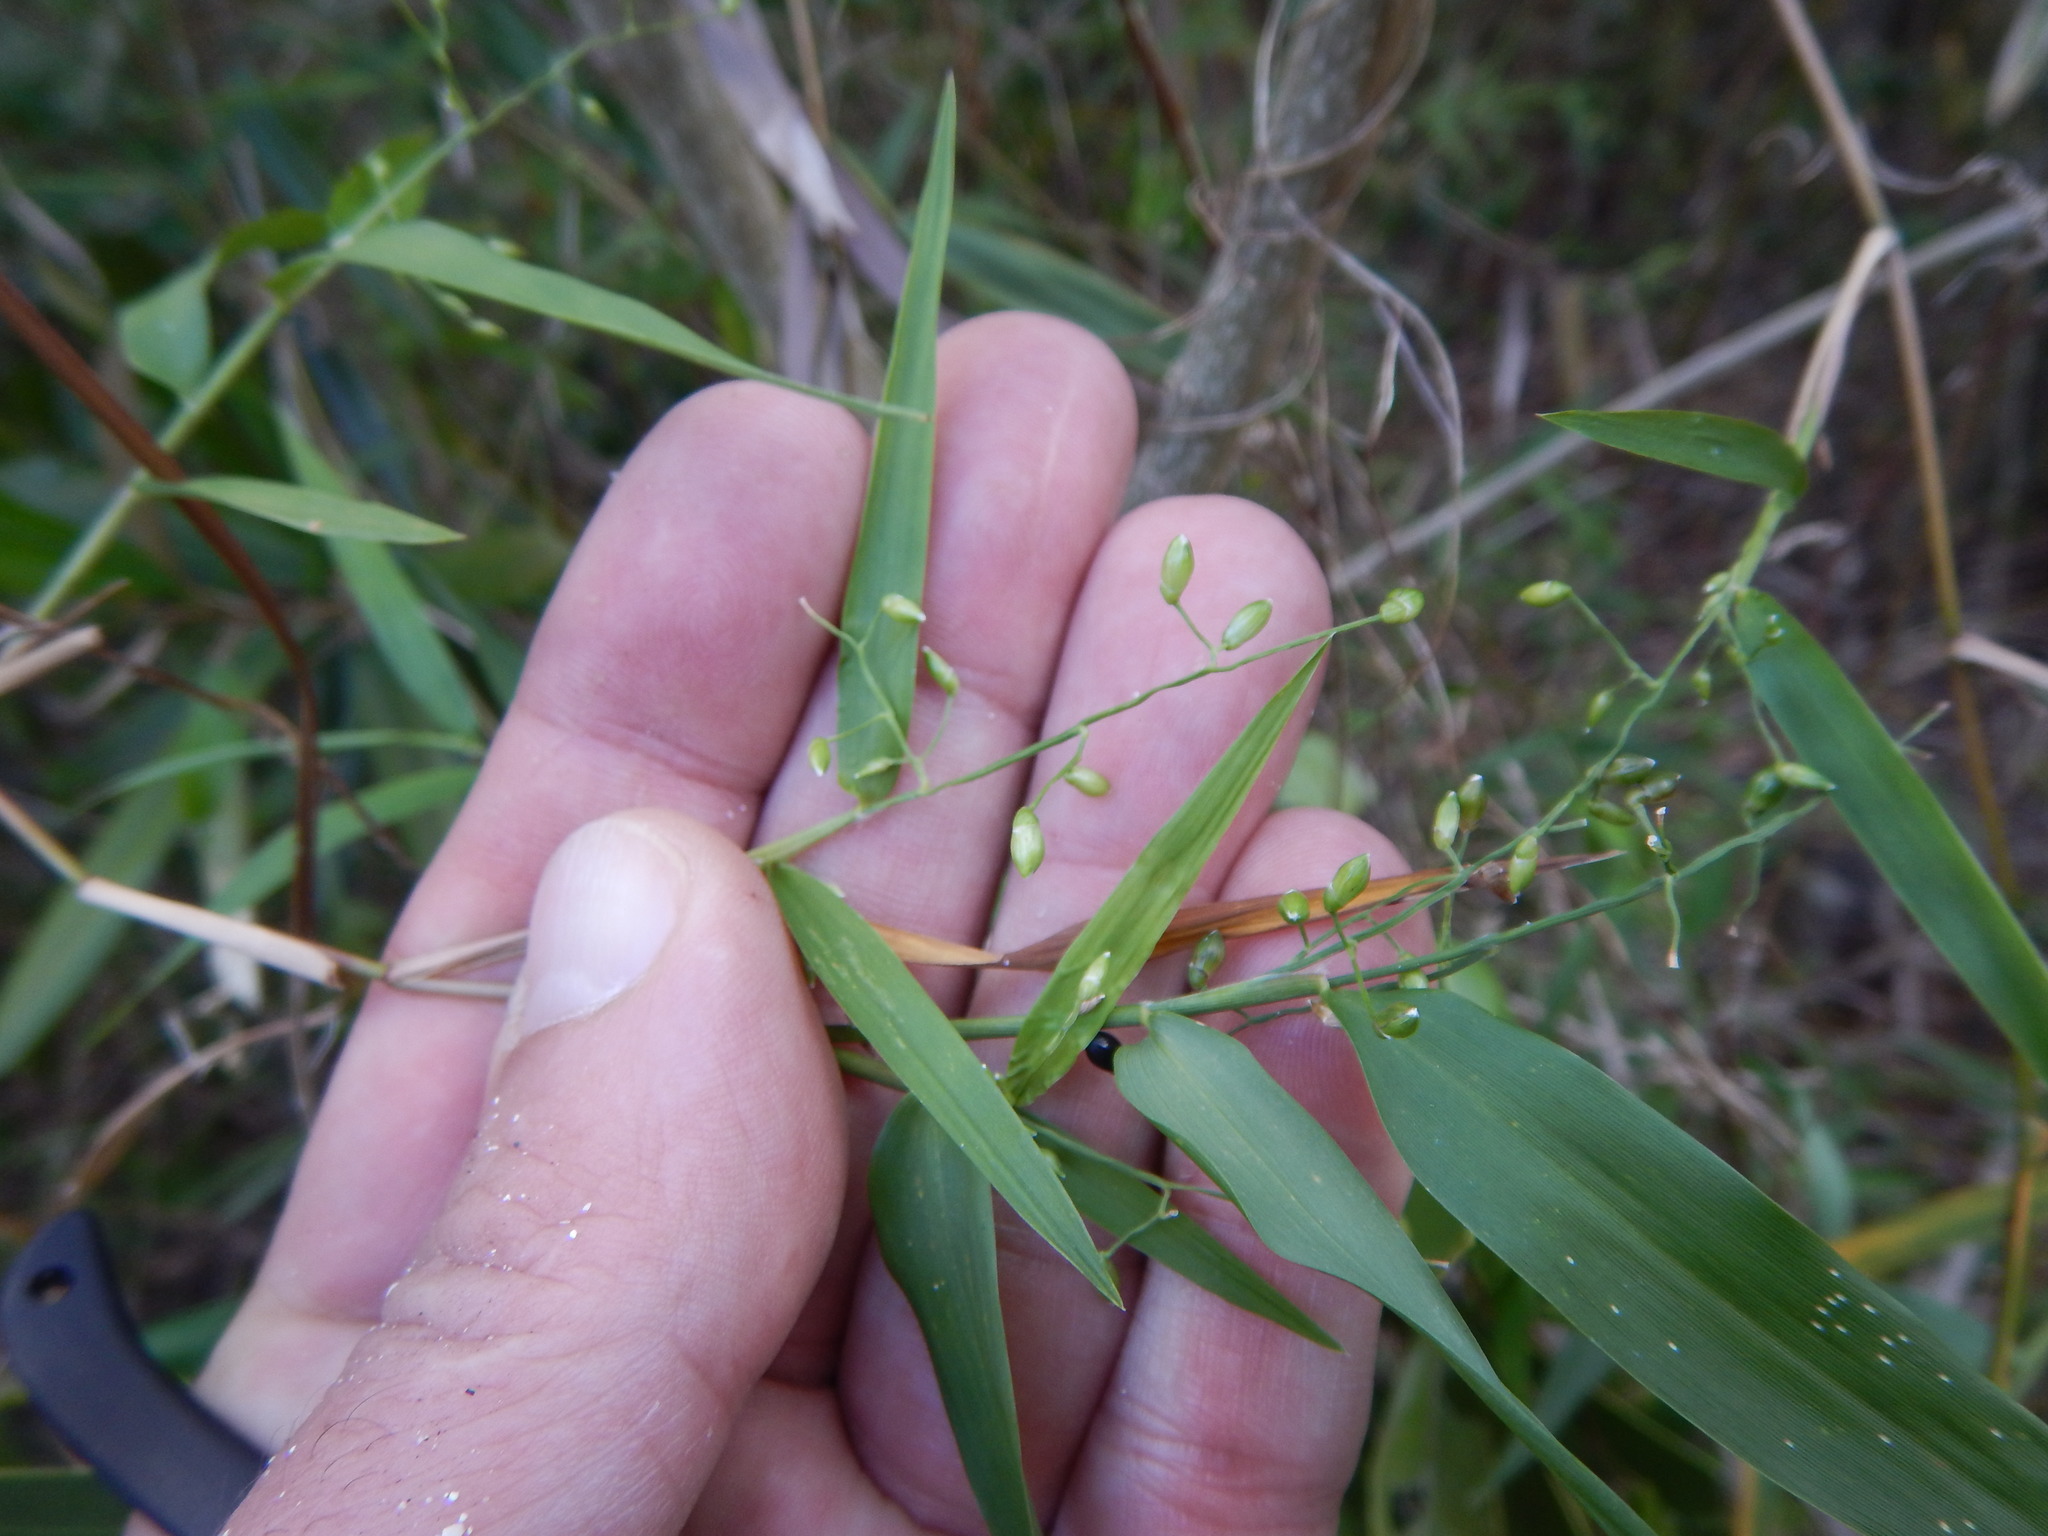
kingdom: Plantae
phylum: Tracheophyta
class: Liliopsida
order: Poales
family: Poaceae
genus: Lasiacis
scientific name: Lasiacis divaricata
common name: Smallcane
